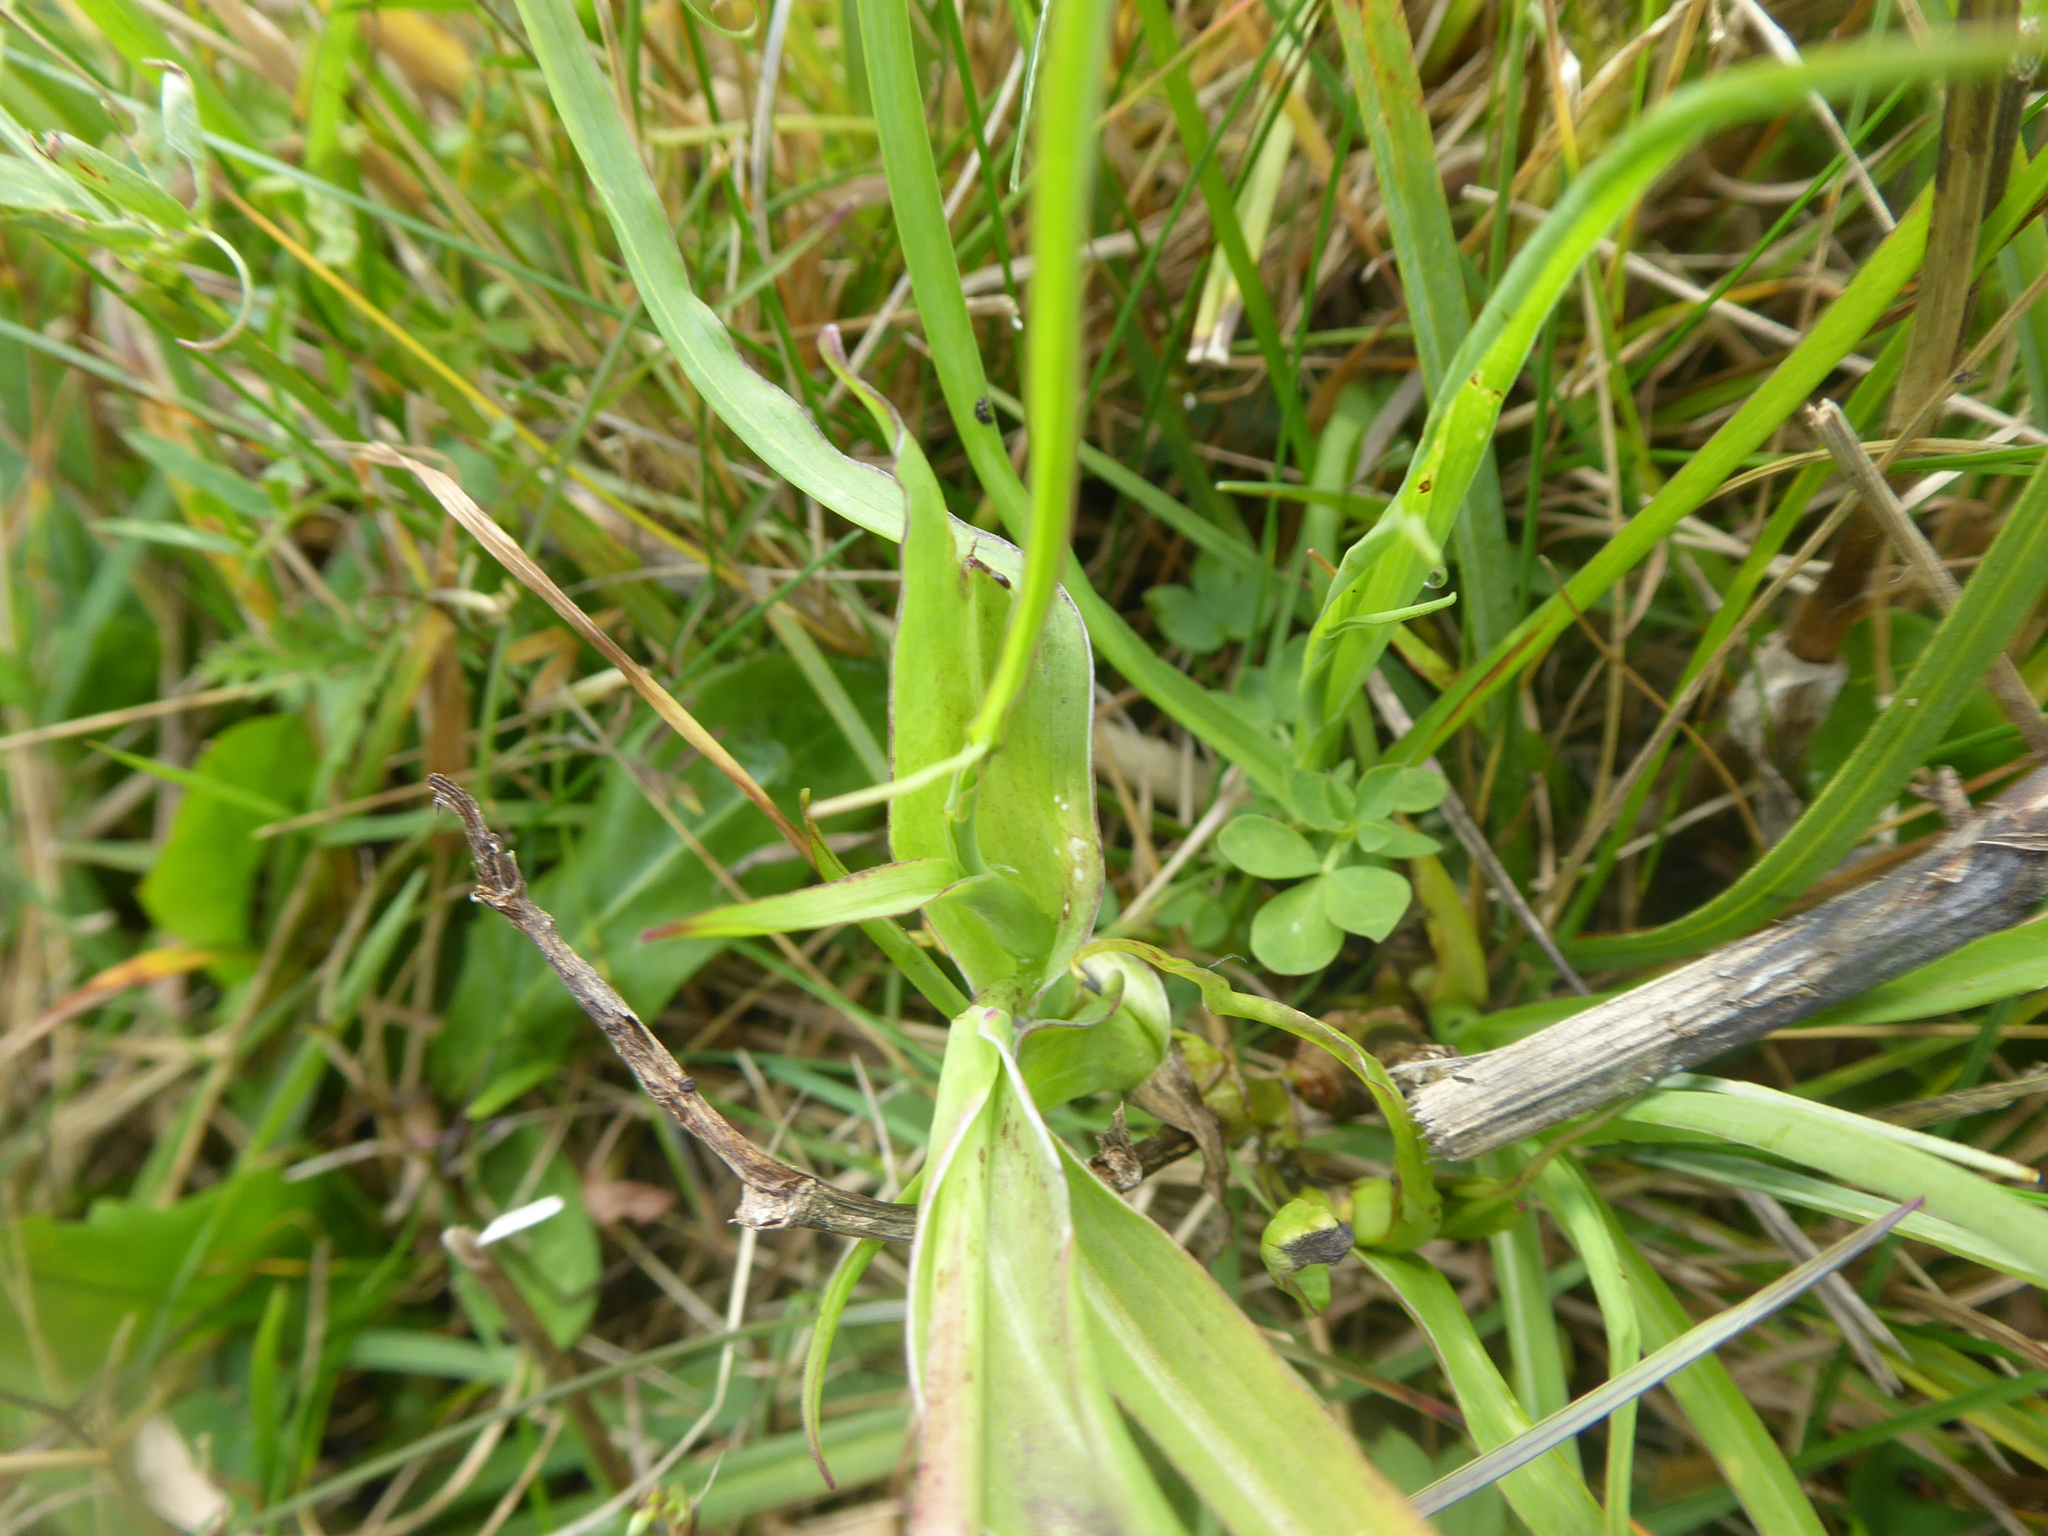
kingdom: Plantae
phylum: Tracheophyta
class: Magnoliopsida
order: Asterales
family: Asteraceae
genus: Tragopogon
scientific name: Tragopogon orientalis
